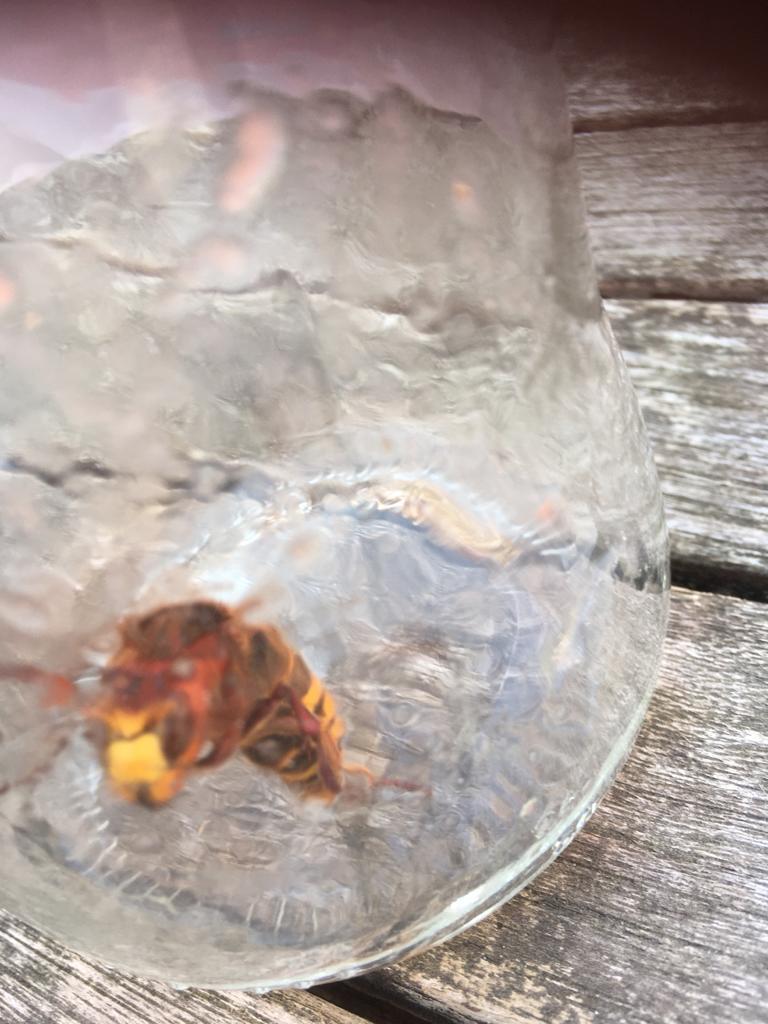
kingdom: Animalia
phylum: Arthropoda
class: Insecta
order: Hymenoptera
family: Vespidae
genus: Vespa
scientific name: Vespa crabro
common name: Hornet
